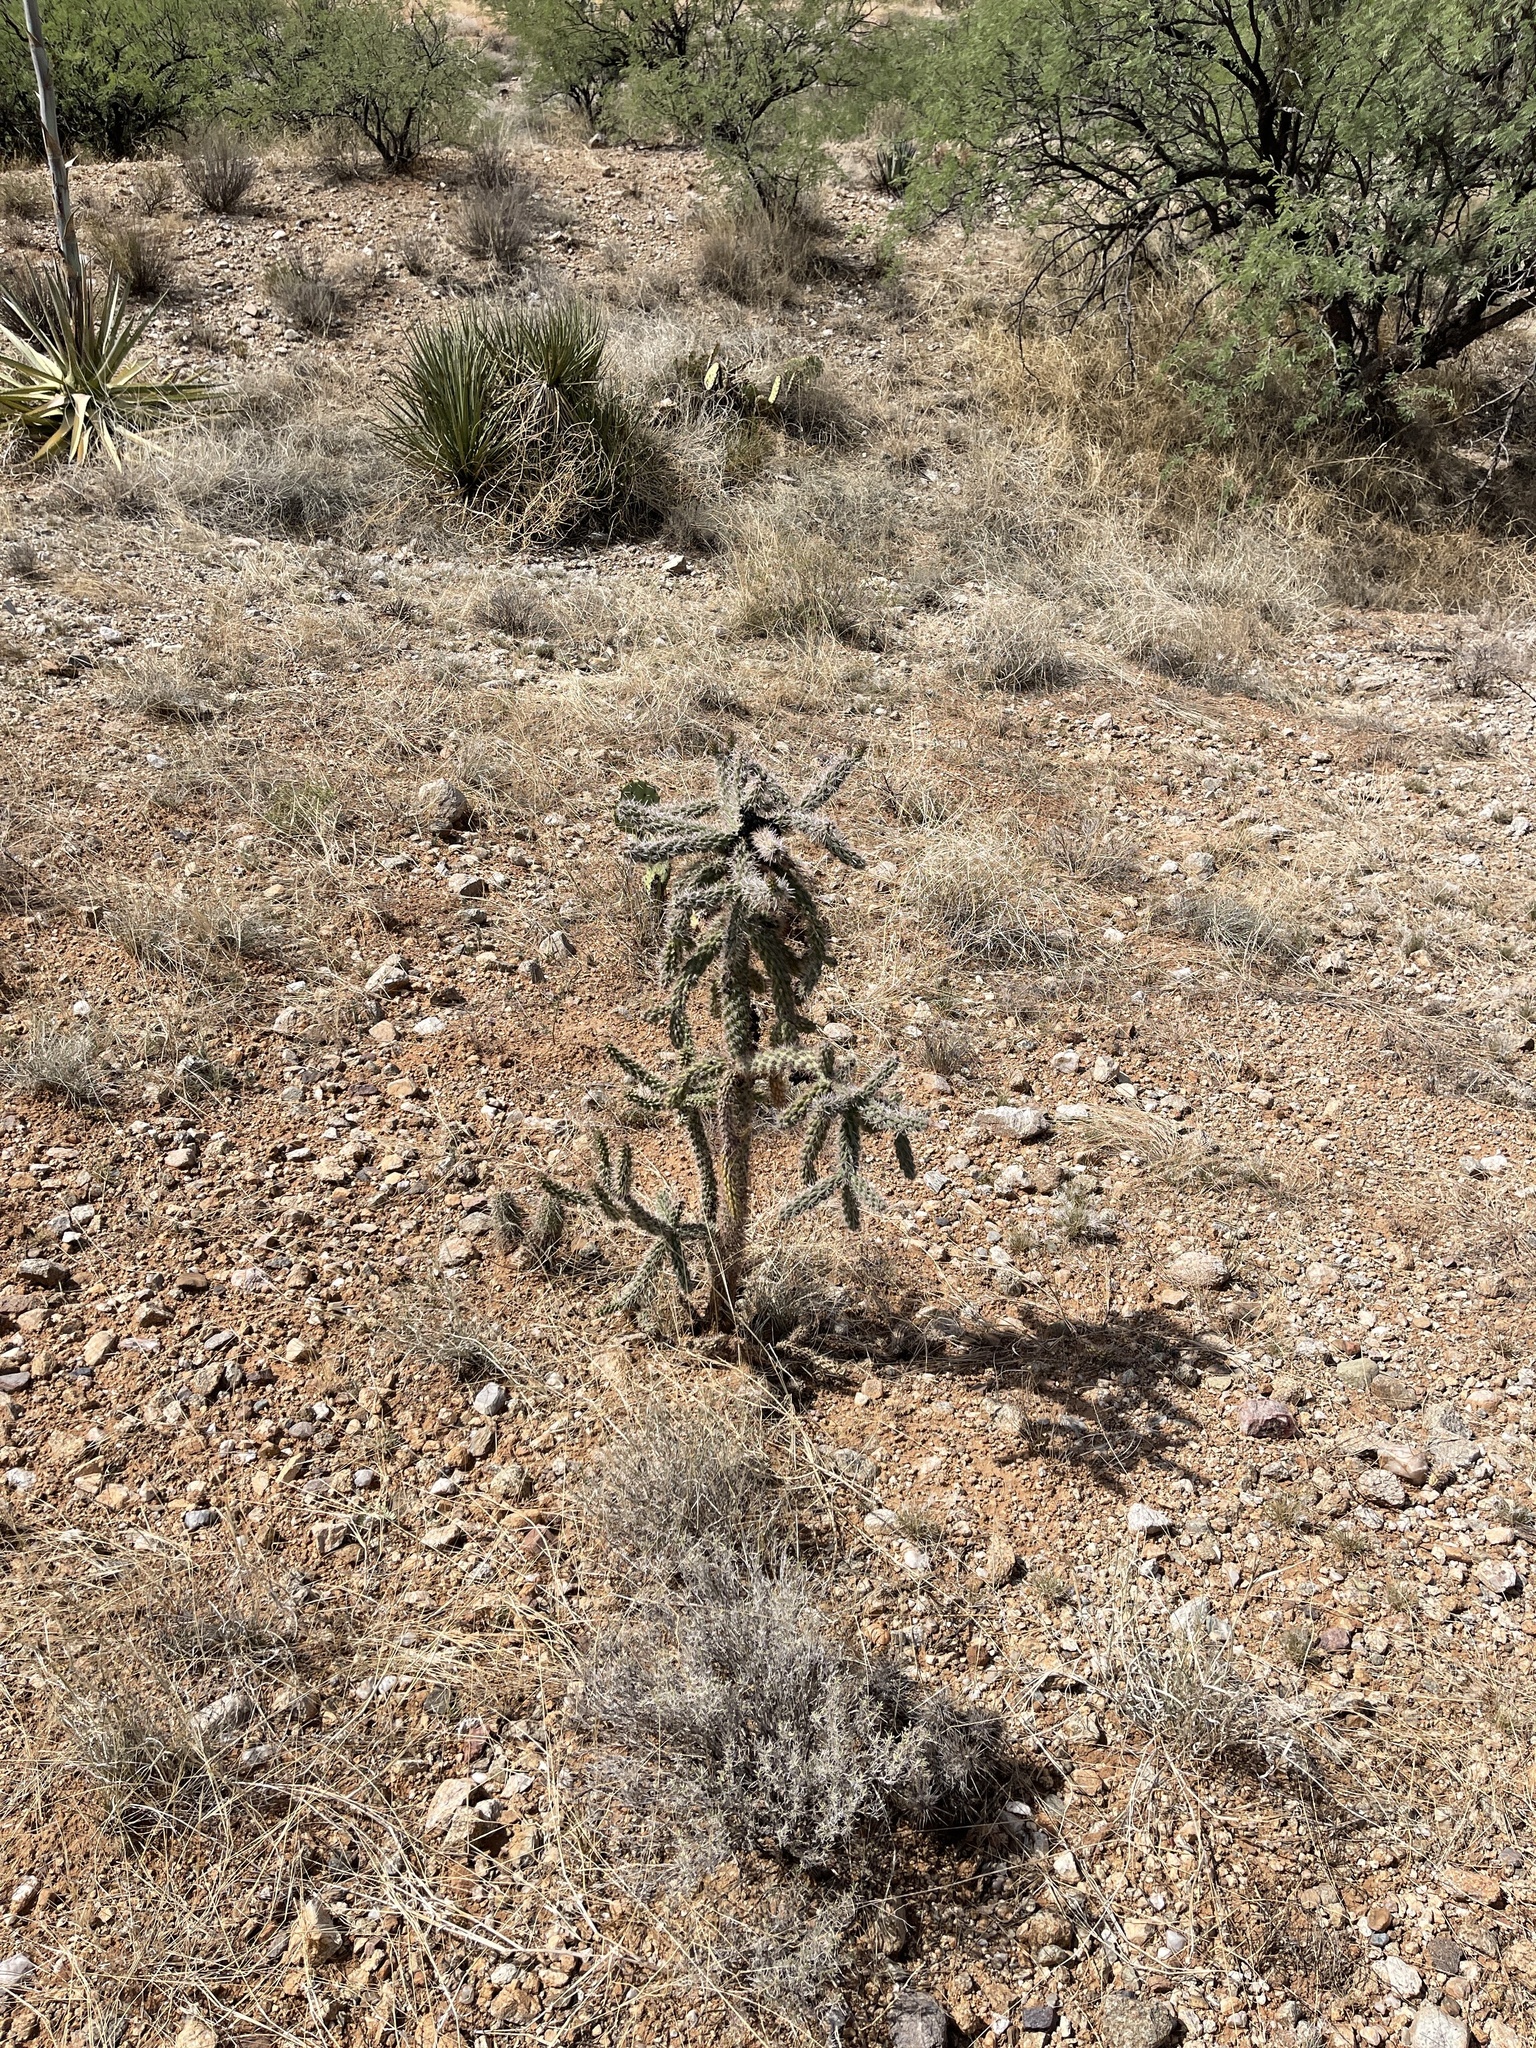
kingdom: Plantae
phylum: Tracheophyta
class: Magnoliopsida
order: Caryophyllales
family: Cactaceae
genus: Cylindropuntia
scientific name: Cylindropuntia imbricata
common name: Candelabrum cactus
